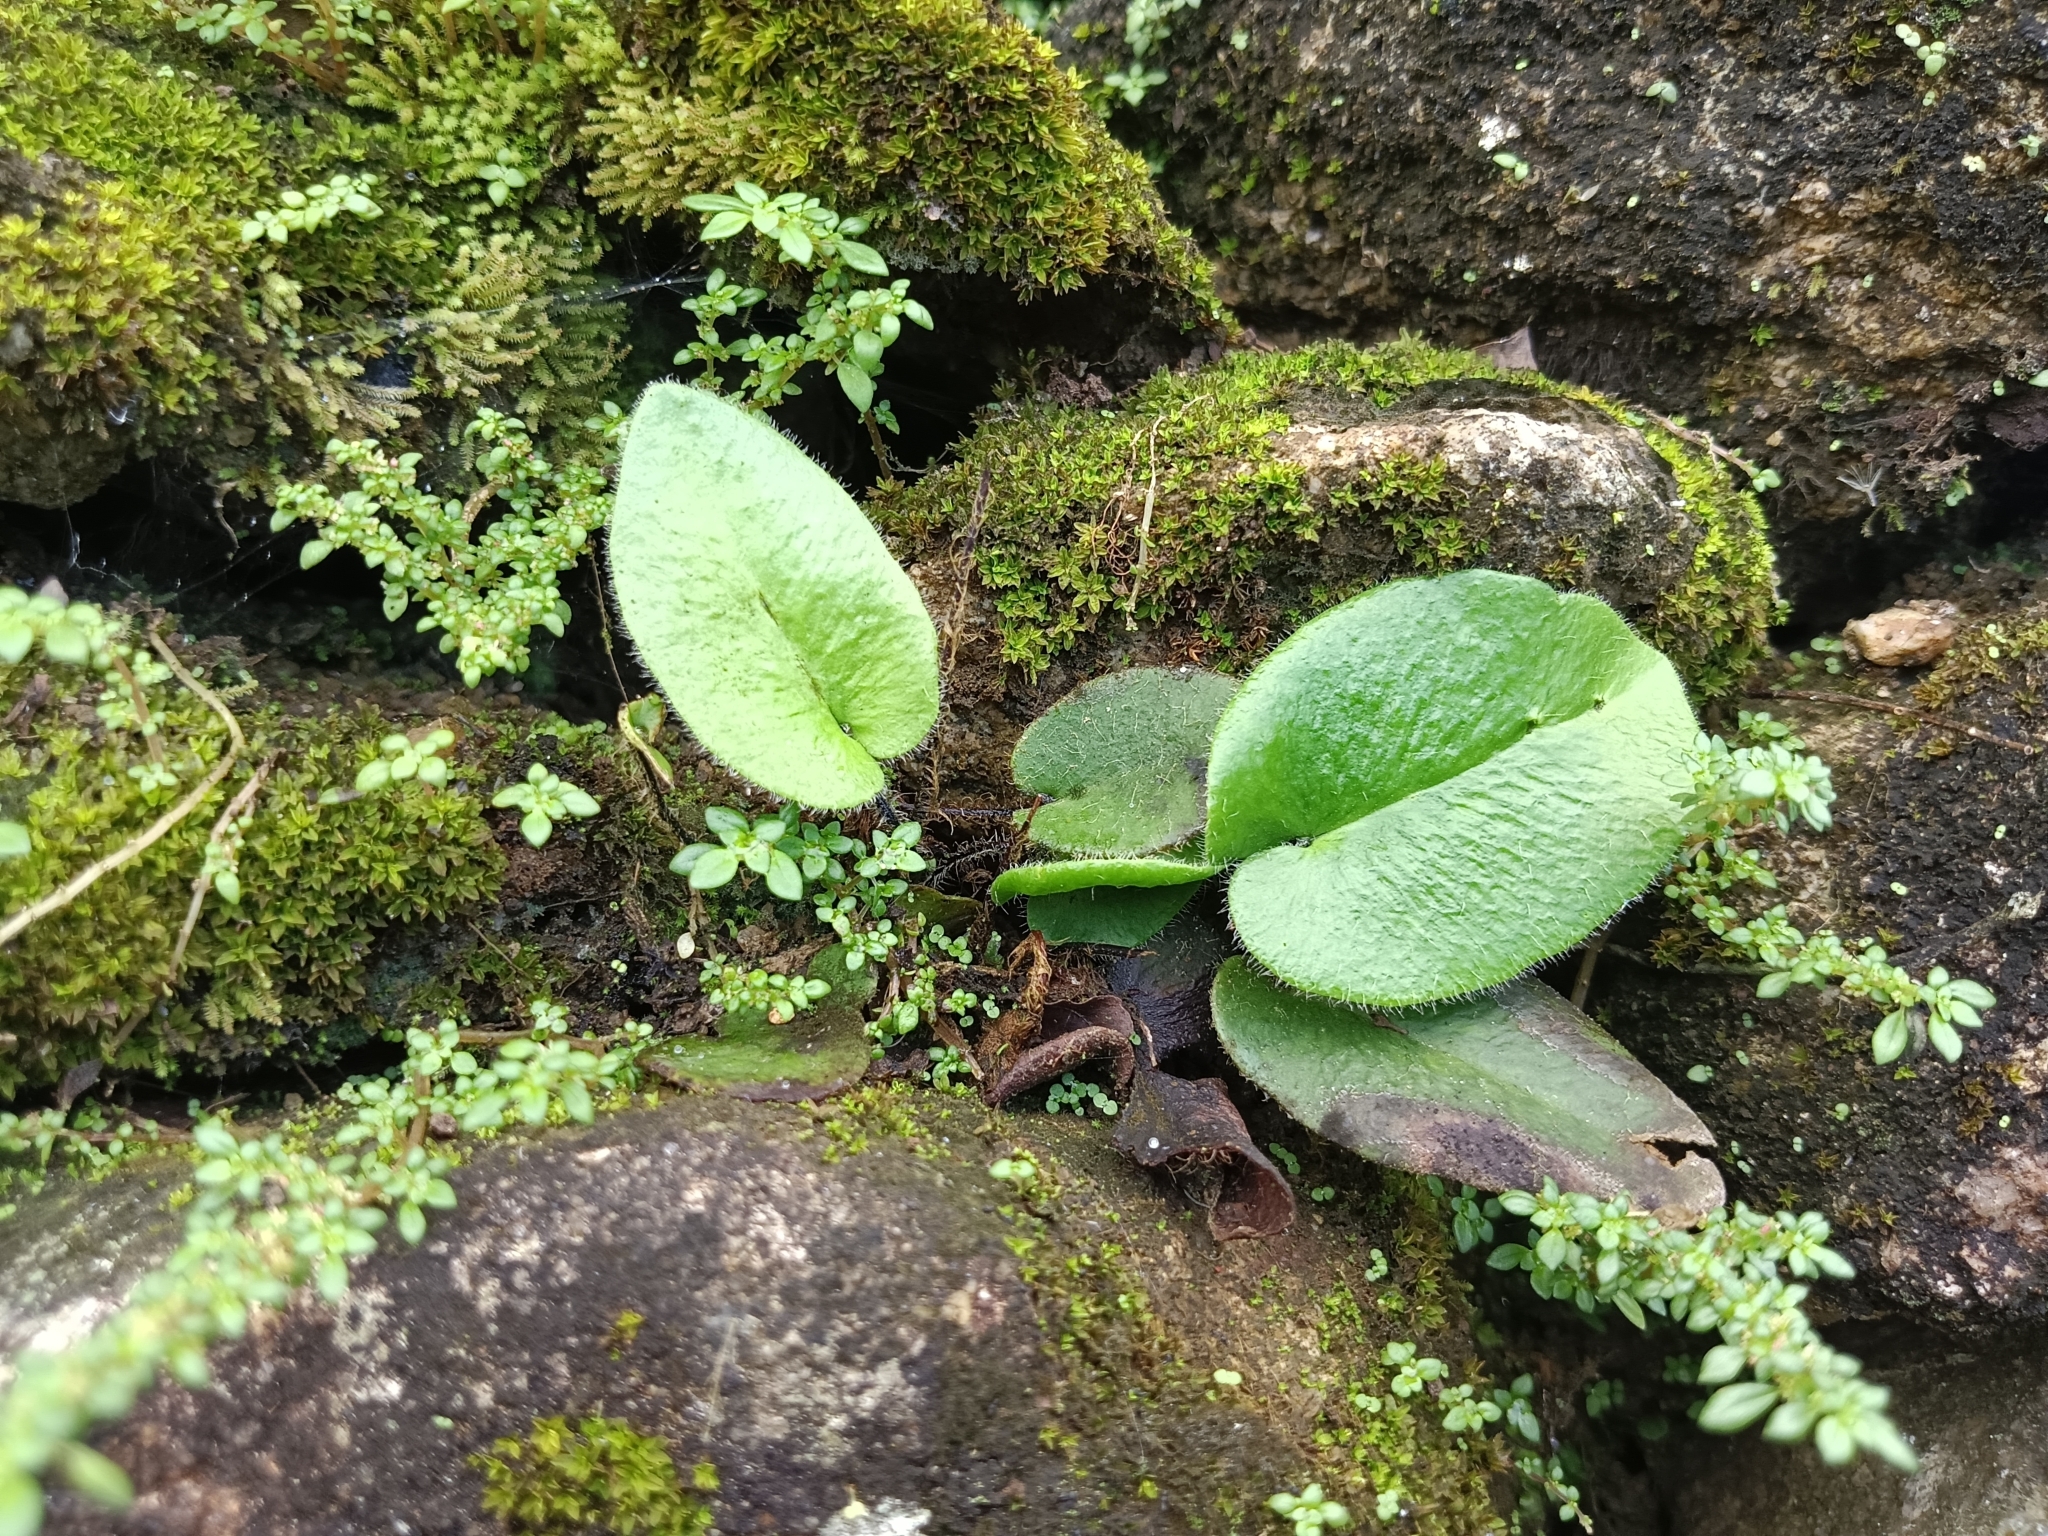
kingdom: Plantae
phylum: Tracheophyta
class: Polypodiopsida
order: Polypodiales
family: Pteridaceae
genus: Mickelopteris
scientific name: Mickelopteris cordata
